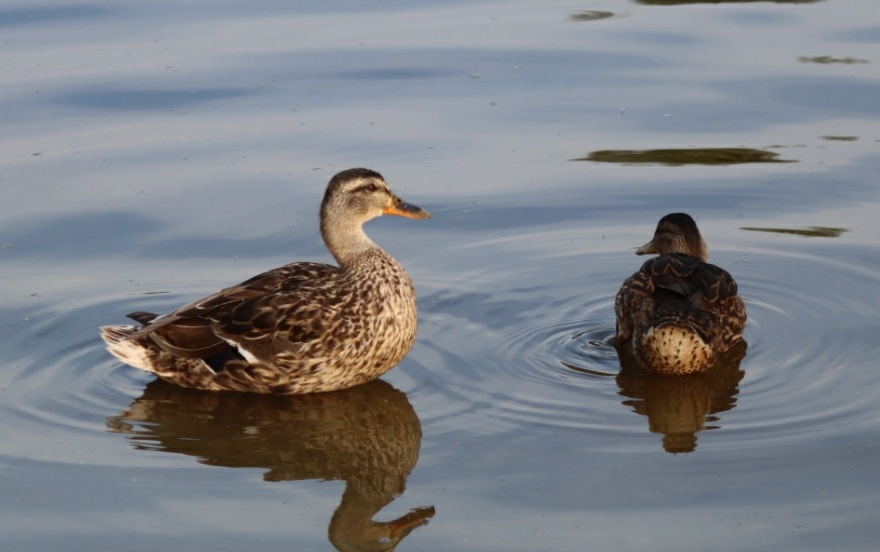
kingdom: Animalia
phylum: Chordata
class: Aves
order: Anseriformes
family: Anatidae
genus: Anas
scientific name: Anas platyrhynchos
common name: Mallard
